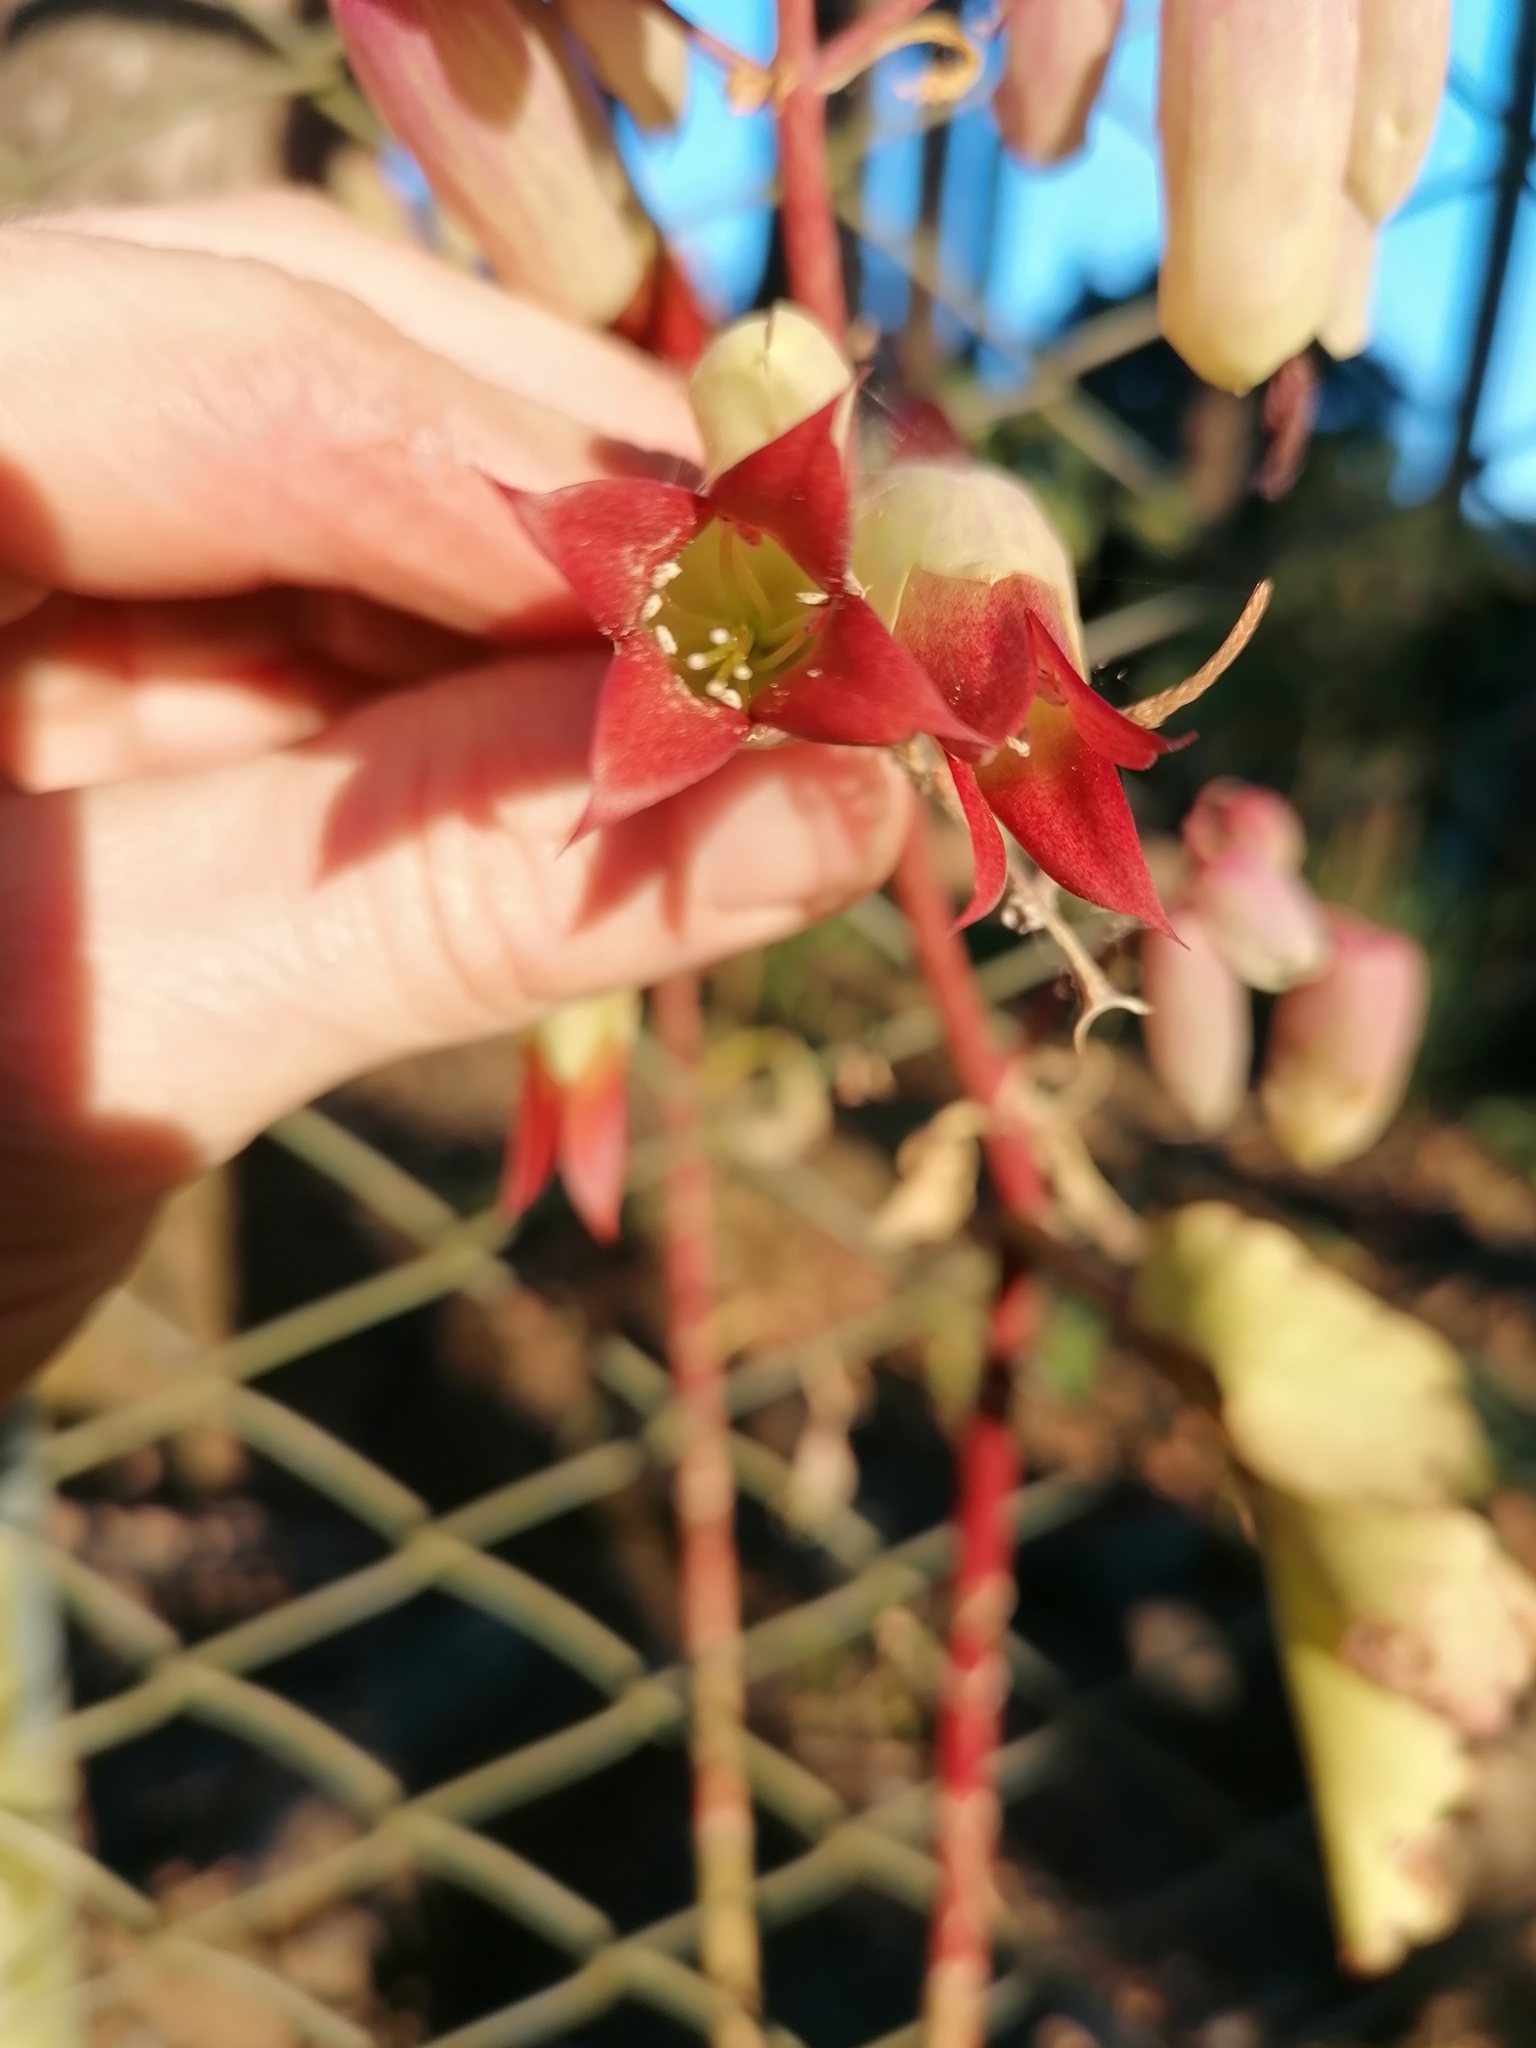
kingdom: Plantae
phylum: Tracheophyta
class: Magnoliopsida
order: Saxifragales
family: Crassulaceae
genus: Kalanchoe
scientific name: Kalanchoe pinnata
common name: Cathedral bells
